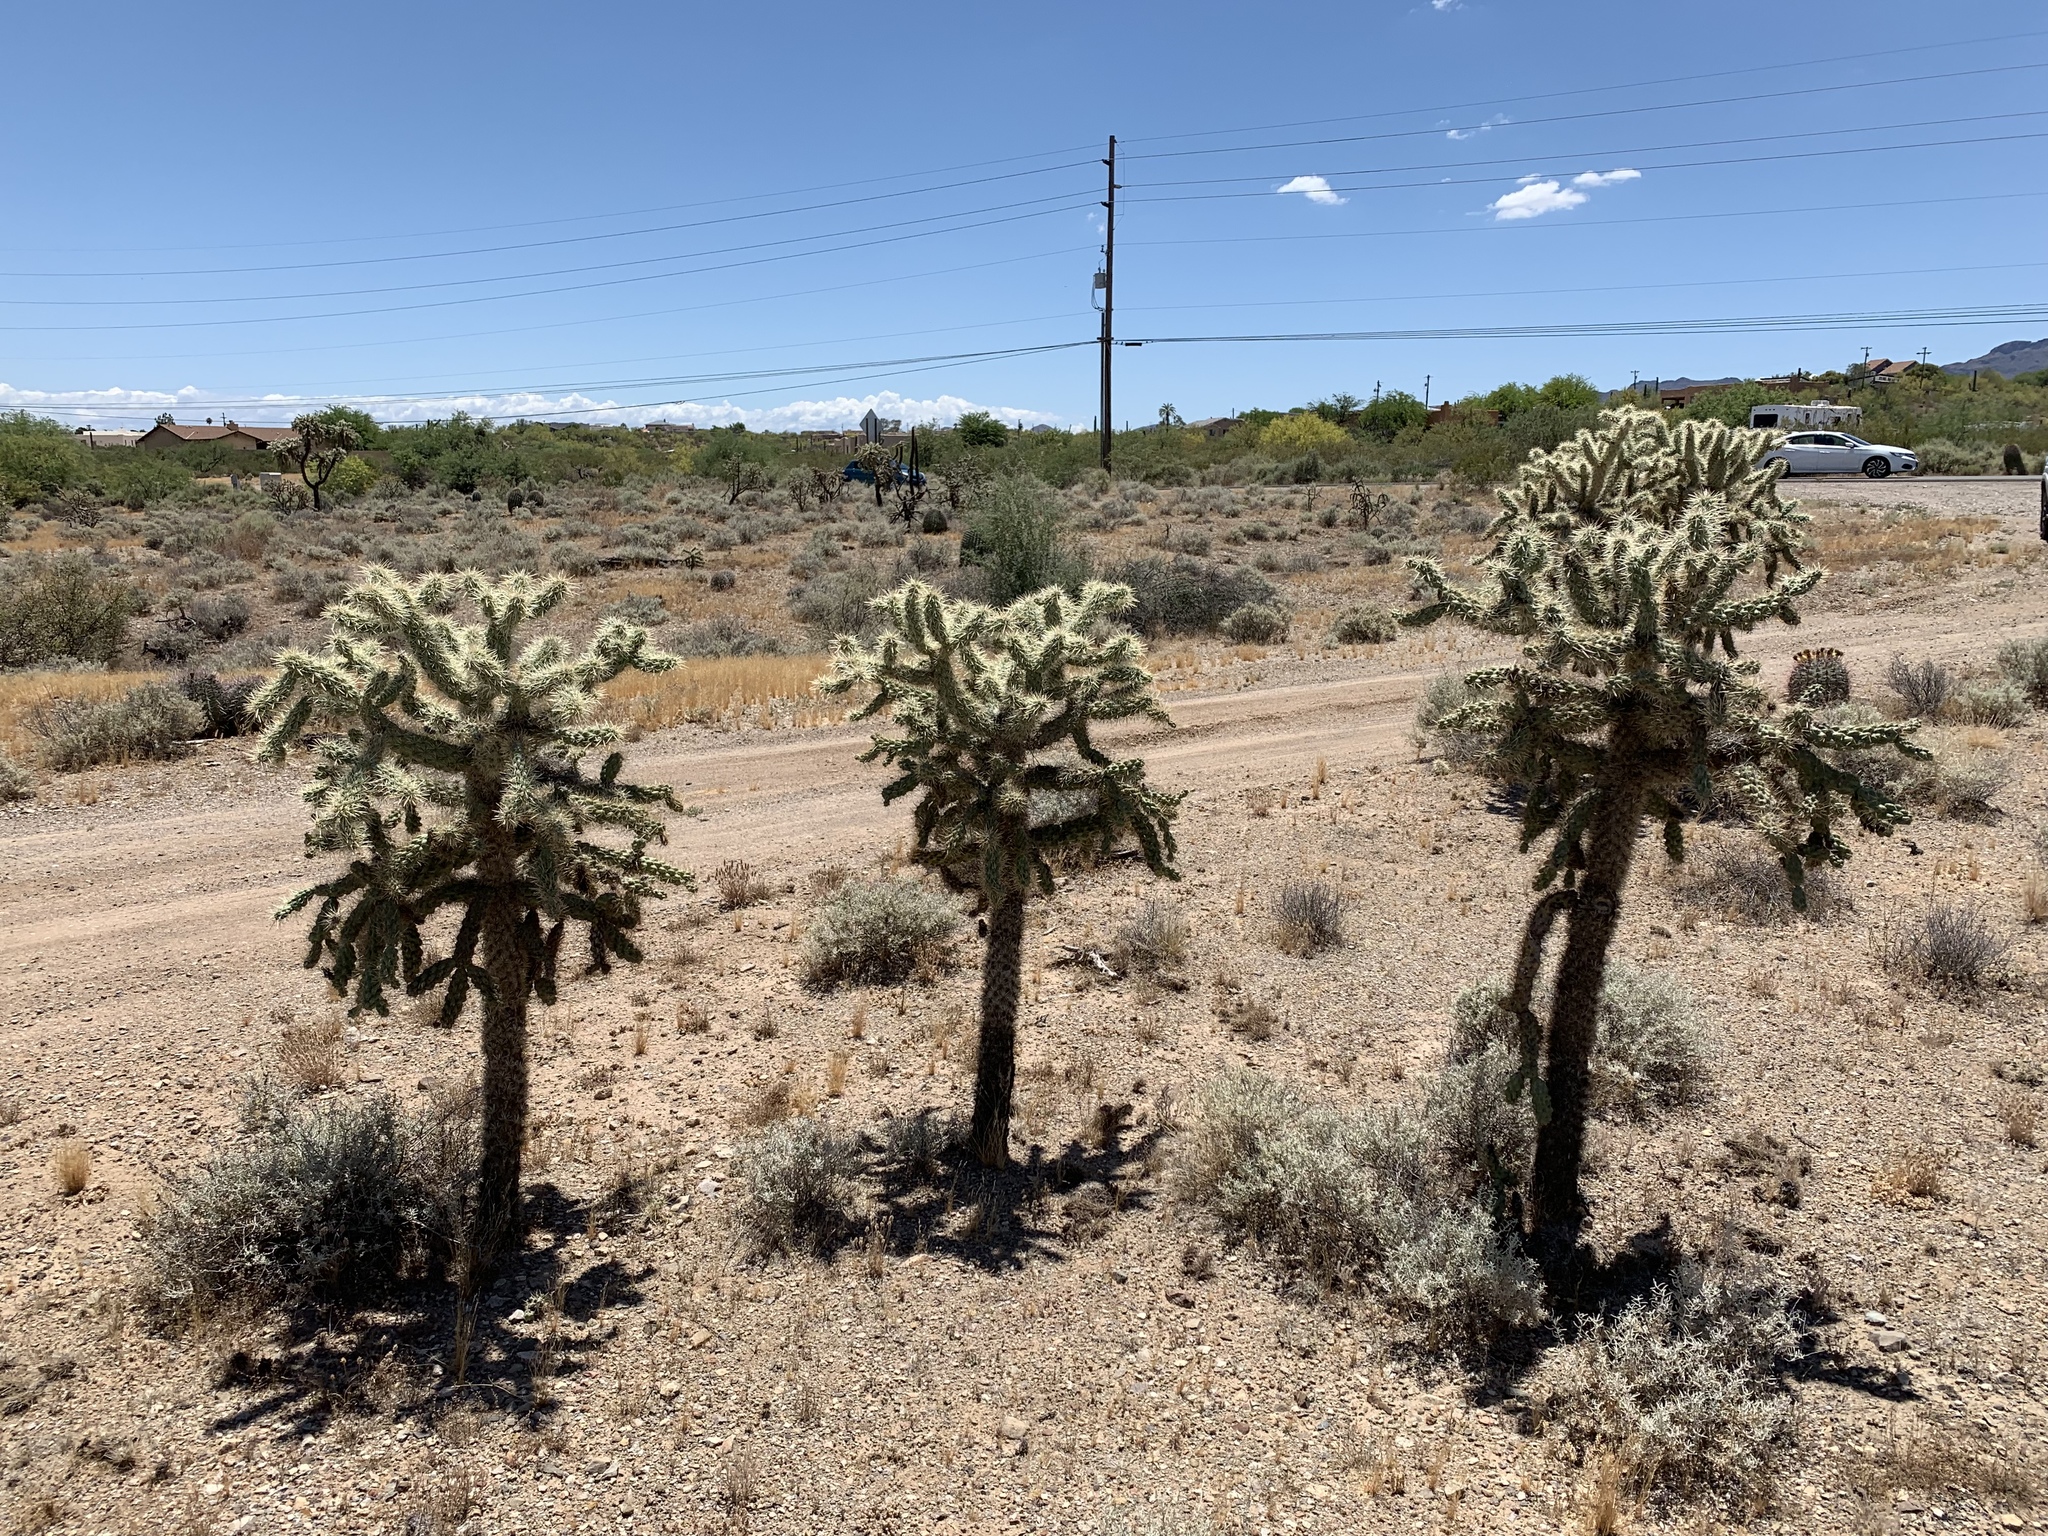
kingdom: Plantae
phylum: Tracheophyta
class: Magnoliopsida
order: Caryophyllales
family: Cactaceae
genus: Cylindropuntia
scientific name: Cylindropuntia fulgida
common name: Jumping cholla
